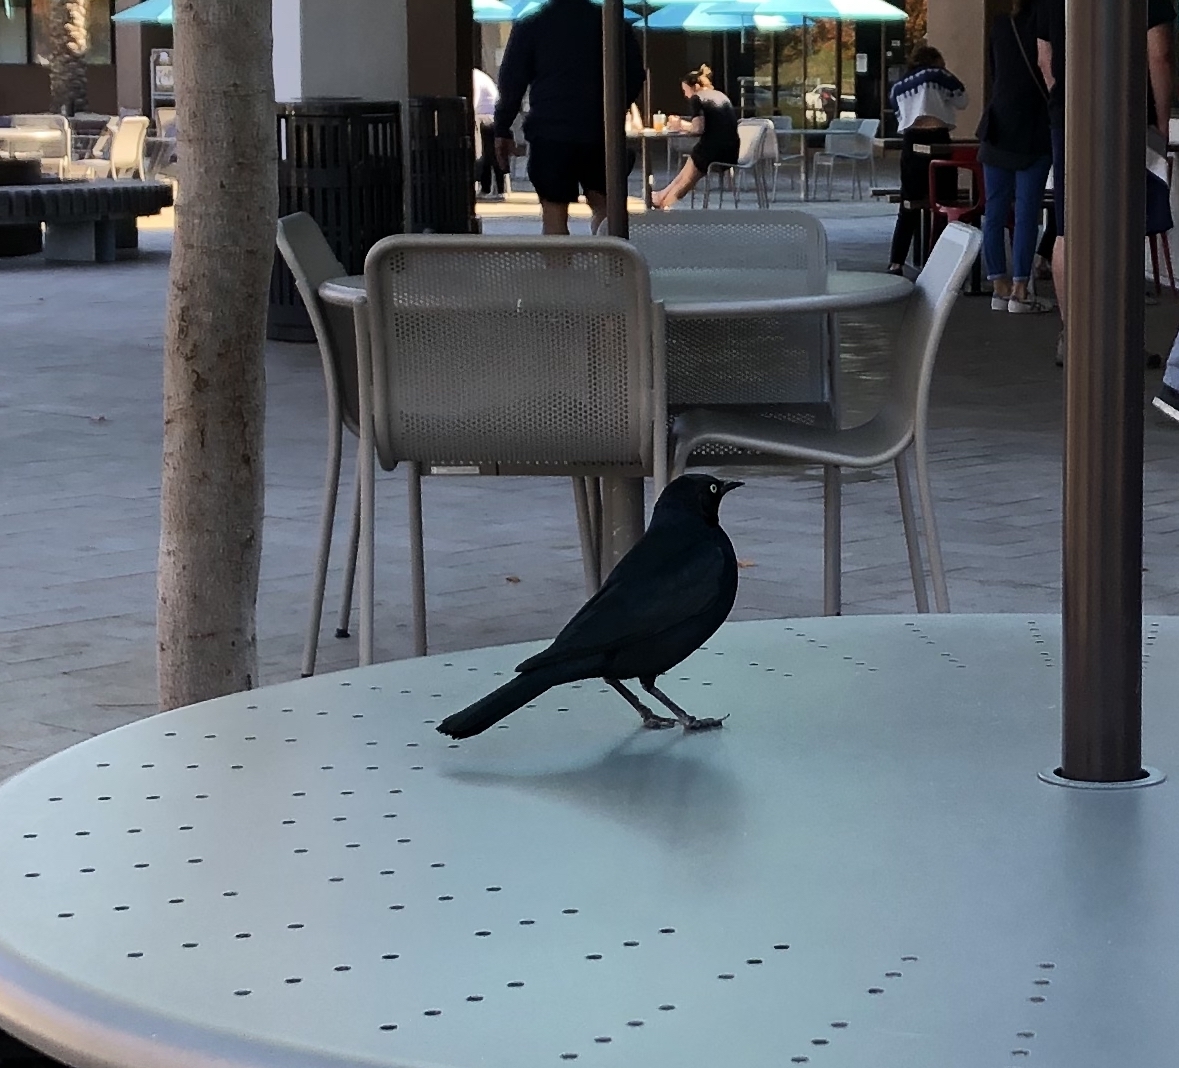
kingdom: Animalia
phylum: Chordata
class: Aves
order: Passeriformes
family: Icteridae
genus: Euphagus
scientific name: Euphagus cyanocephalus
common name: Brewer's blackbird
